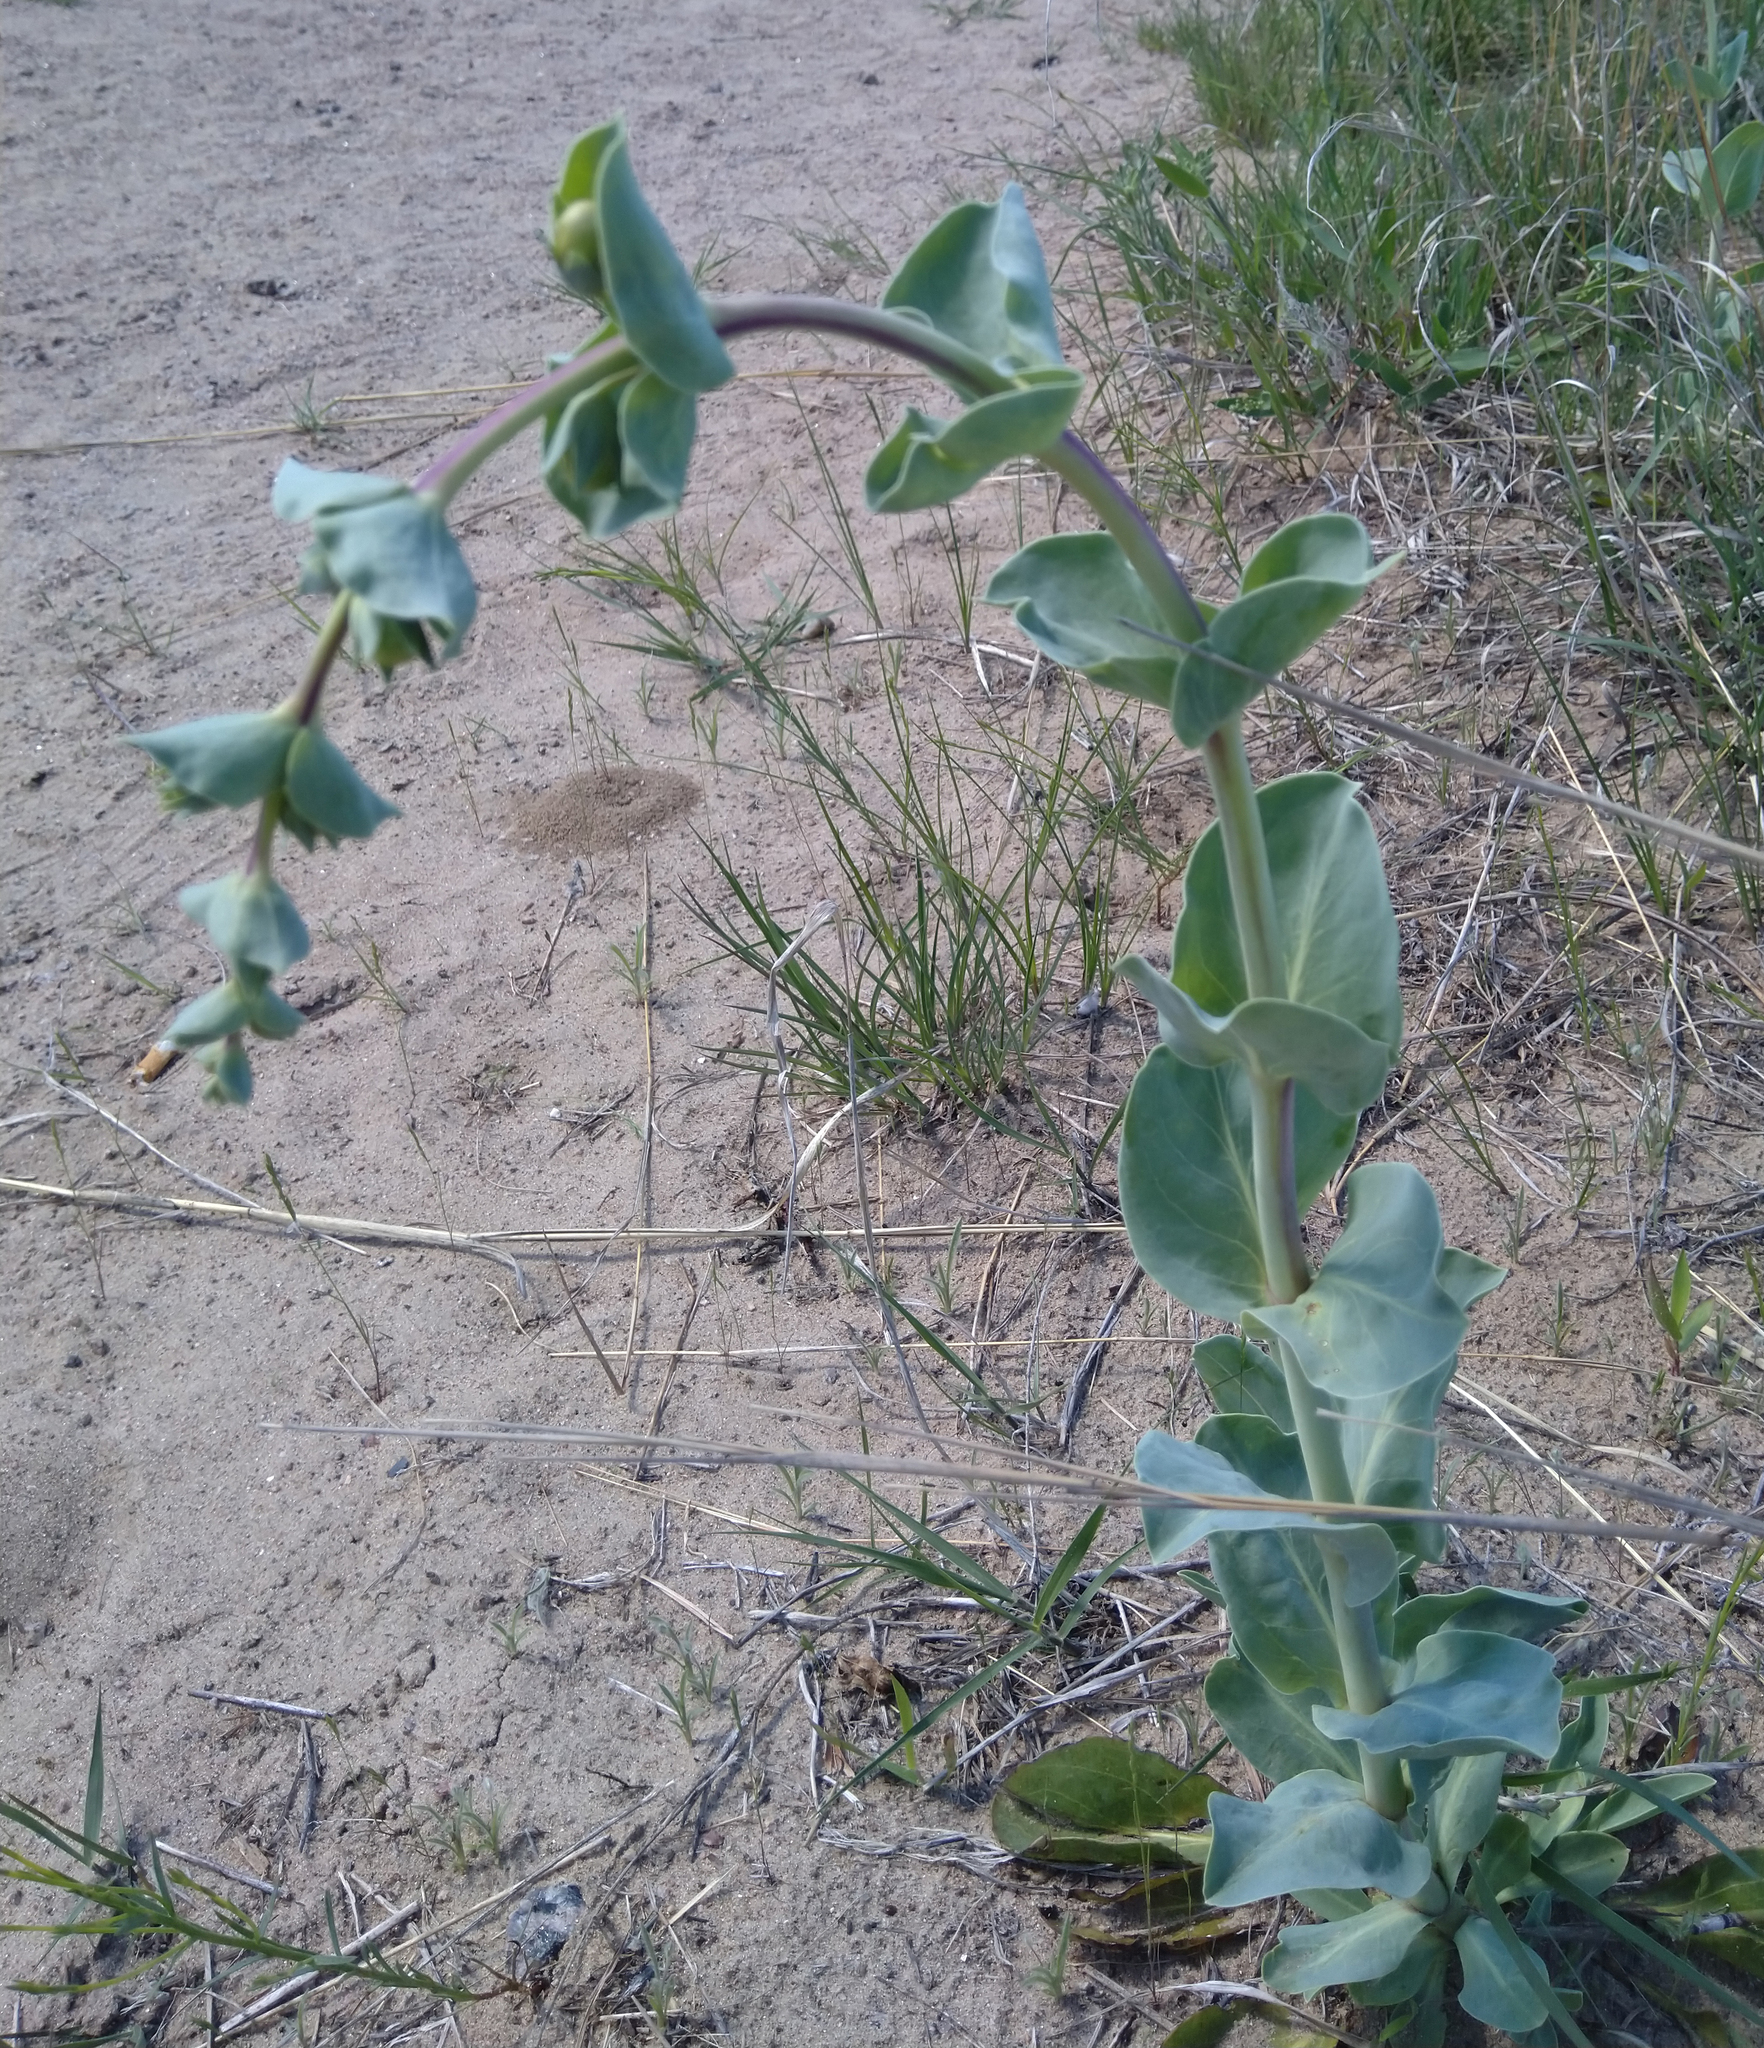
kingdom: Plantae
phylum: Tracheophyta
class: Magnoliopsida
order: Lamiales
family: Plantaginaceae
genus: Penstemon
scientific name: Penstemon
